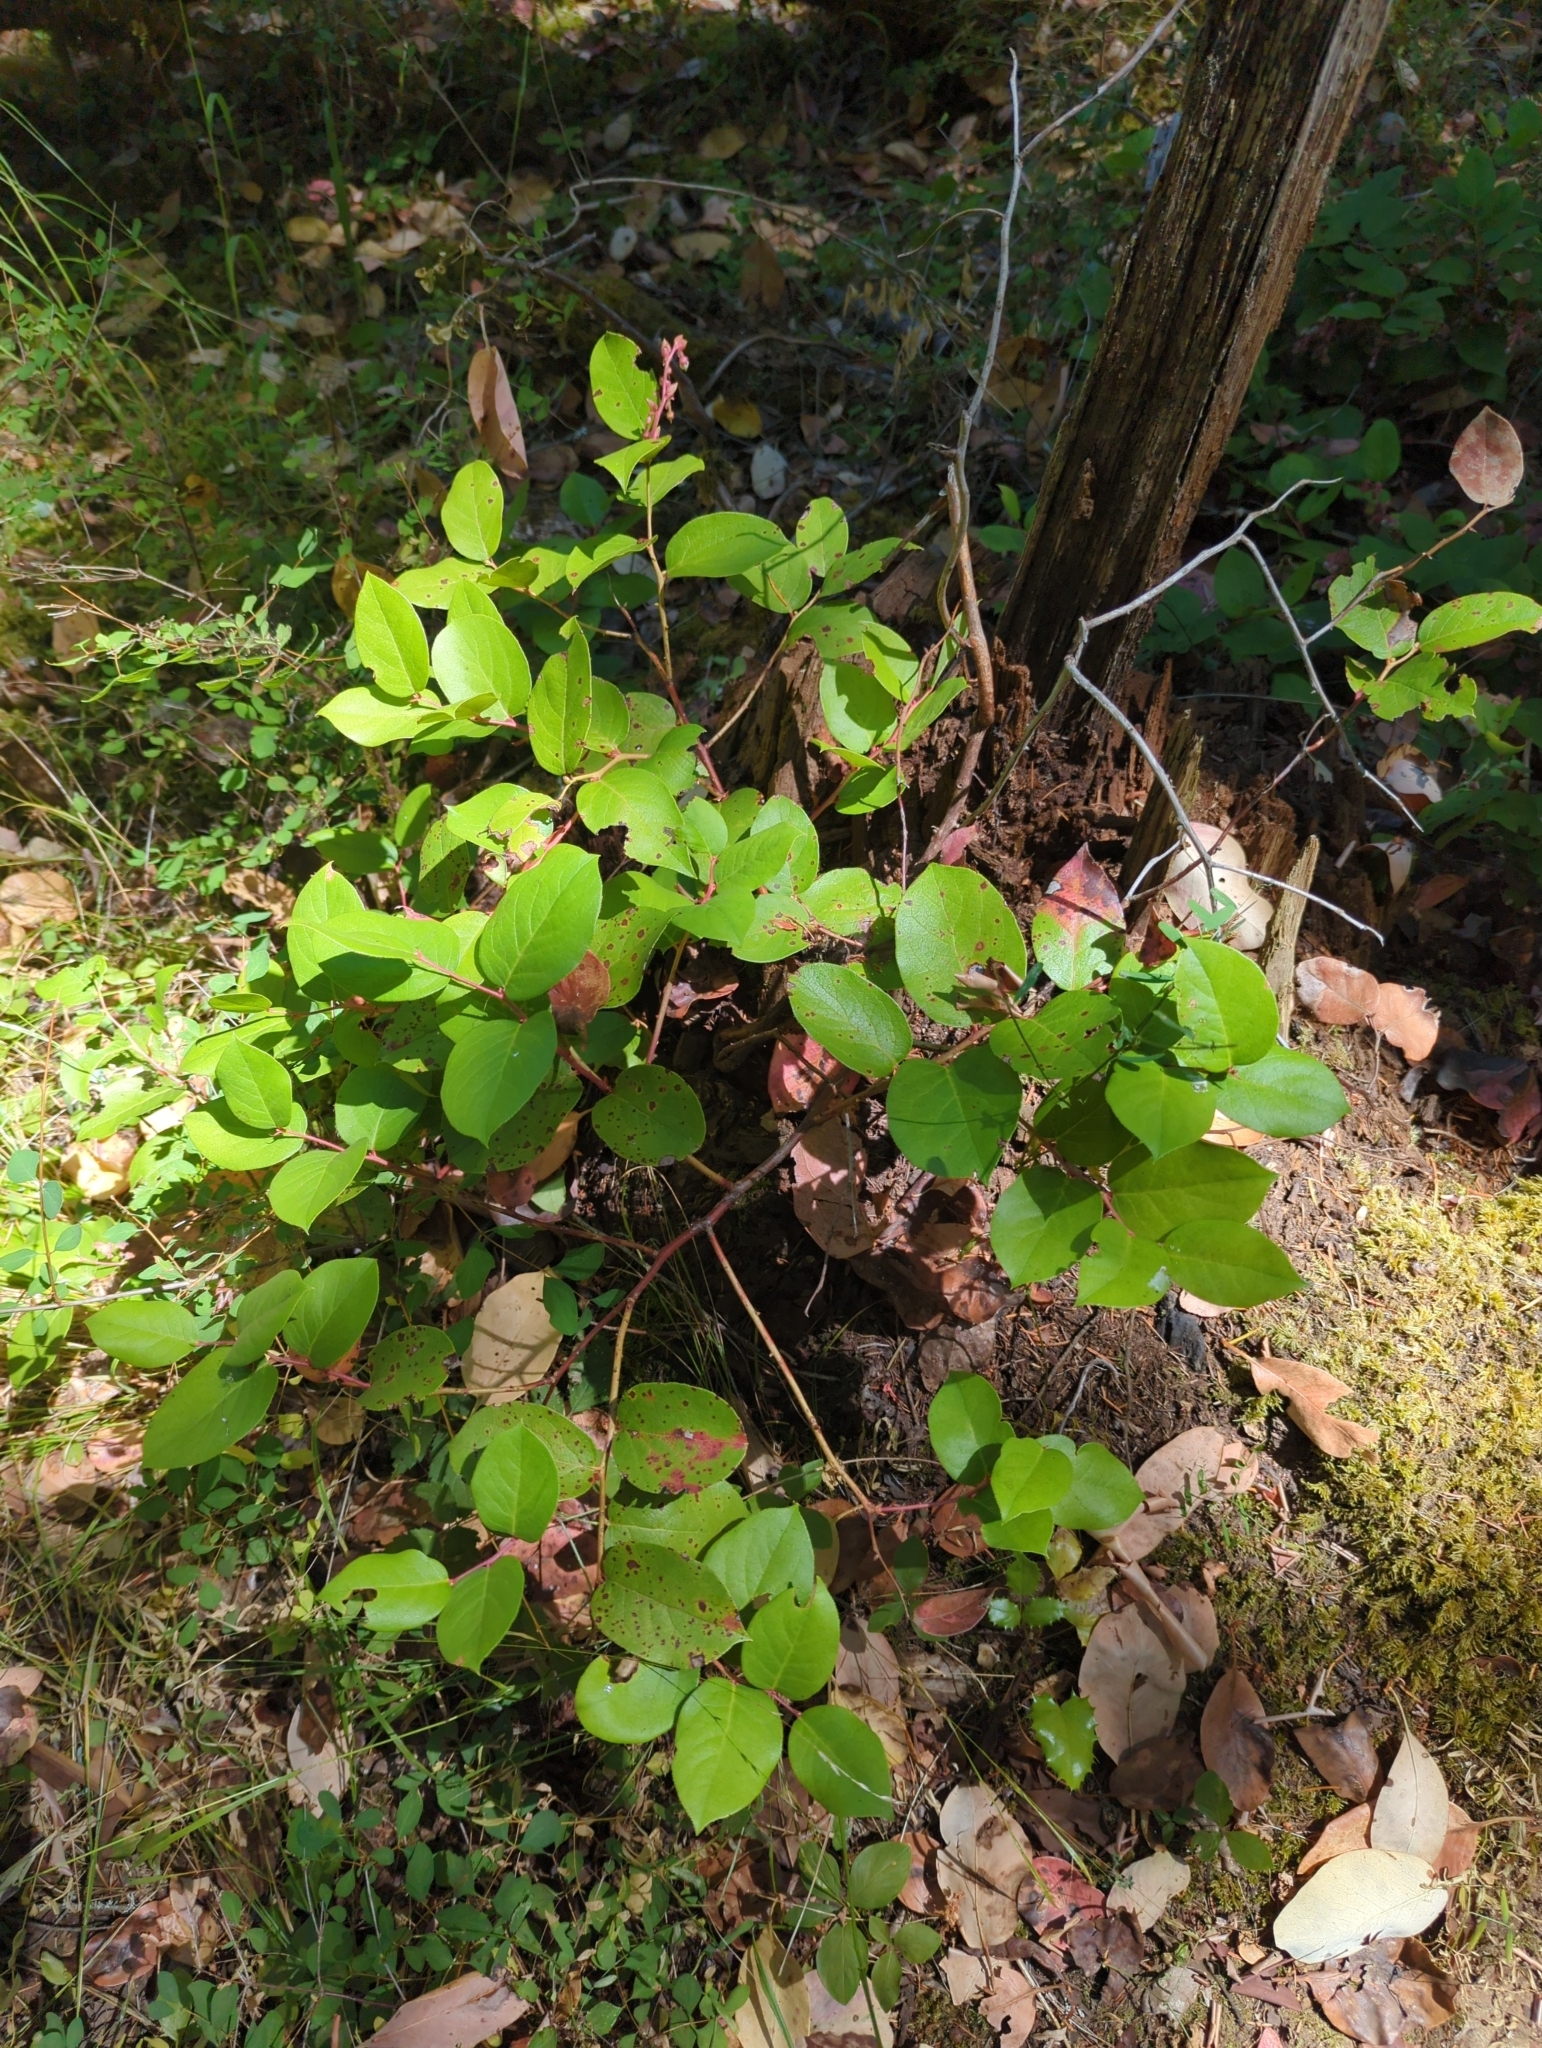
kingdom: Plantae
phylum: Tracheophyta
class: Magnoliopsida
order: Ericales
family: Ericaceae
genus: Gaultheria
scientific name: Gaultheria shallon
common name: Shallon
